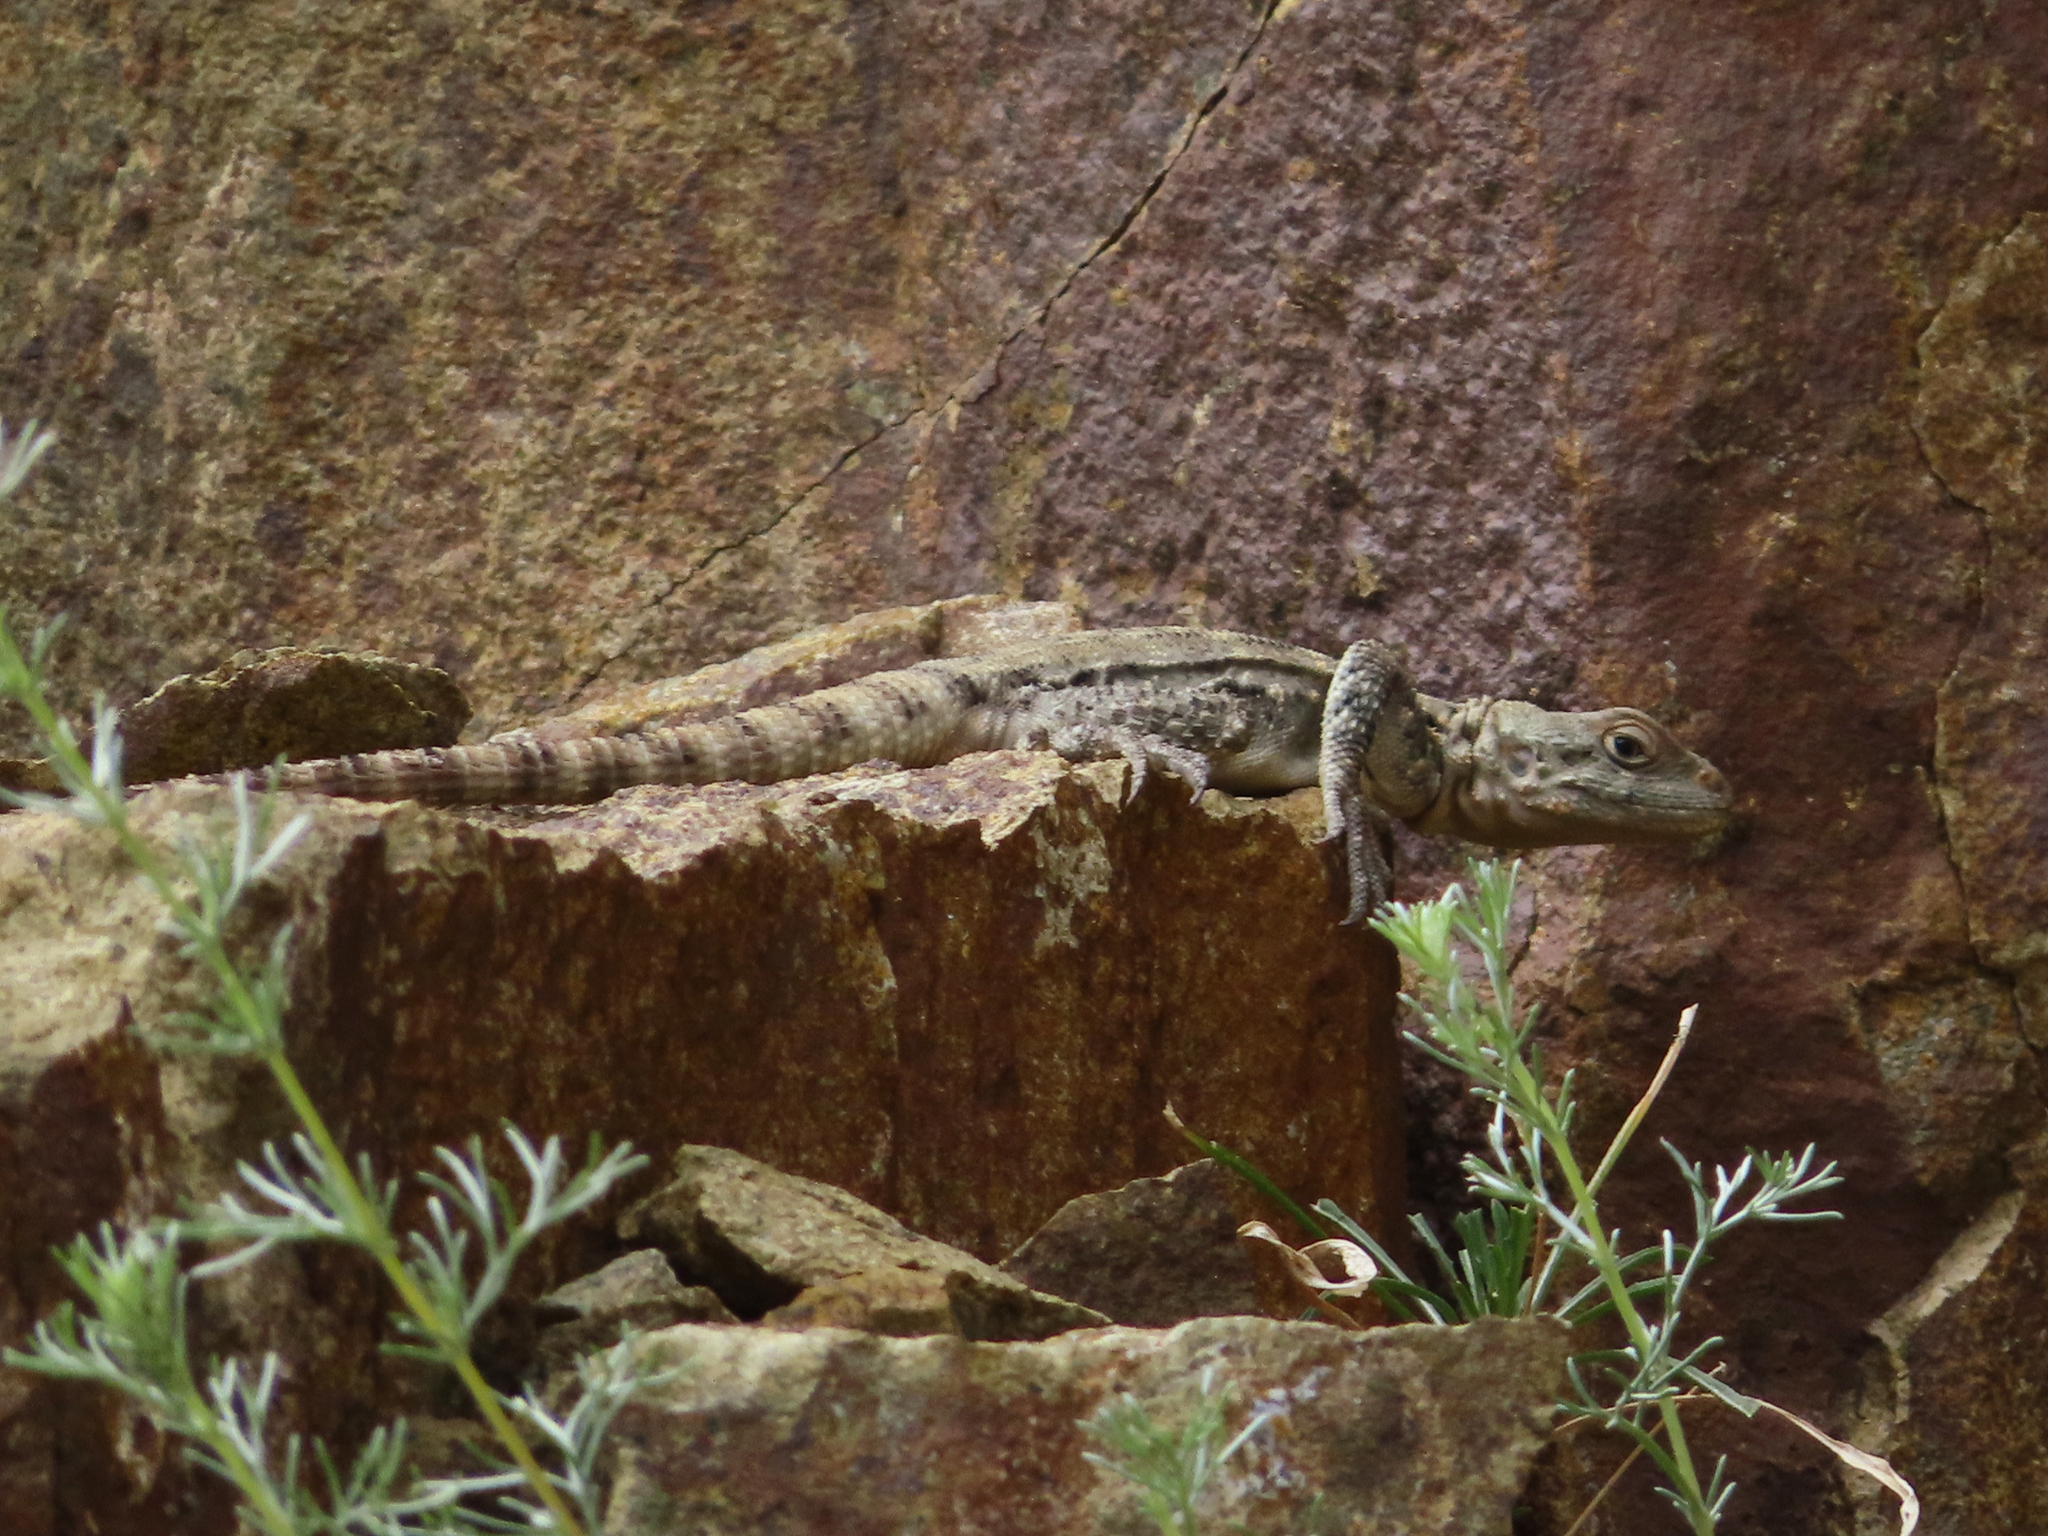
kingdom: Animalia
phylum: Chordata
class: Squamata
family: Agamidae
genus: Paralaudakia
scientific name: Paralaudakia caucasia
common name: Caucasian agama
